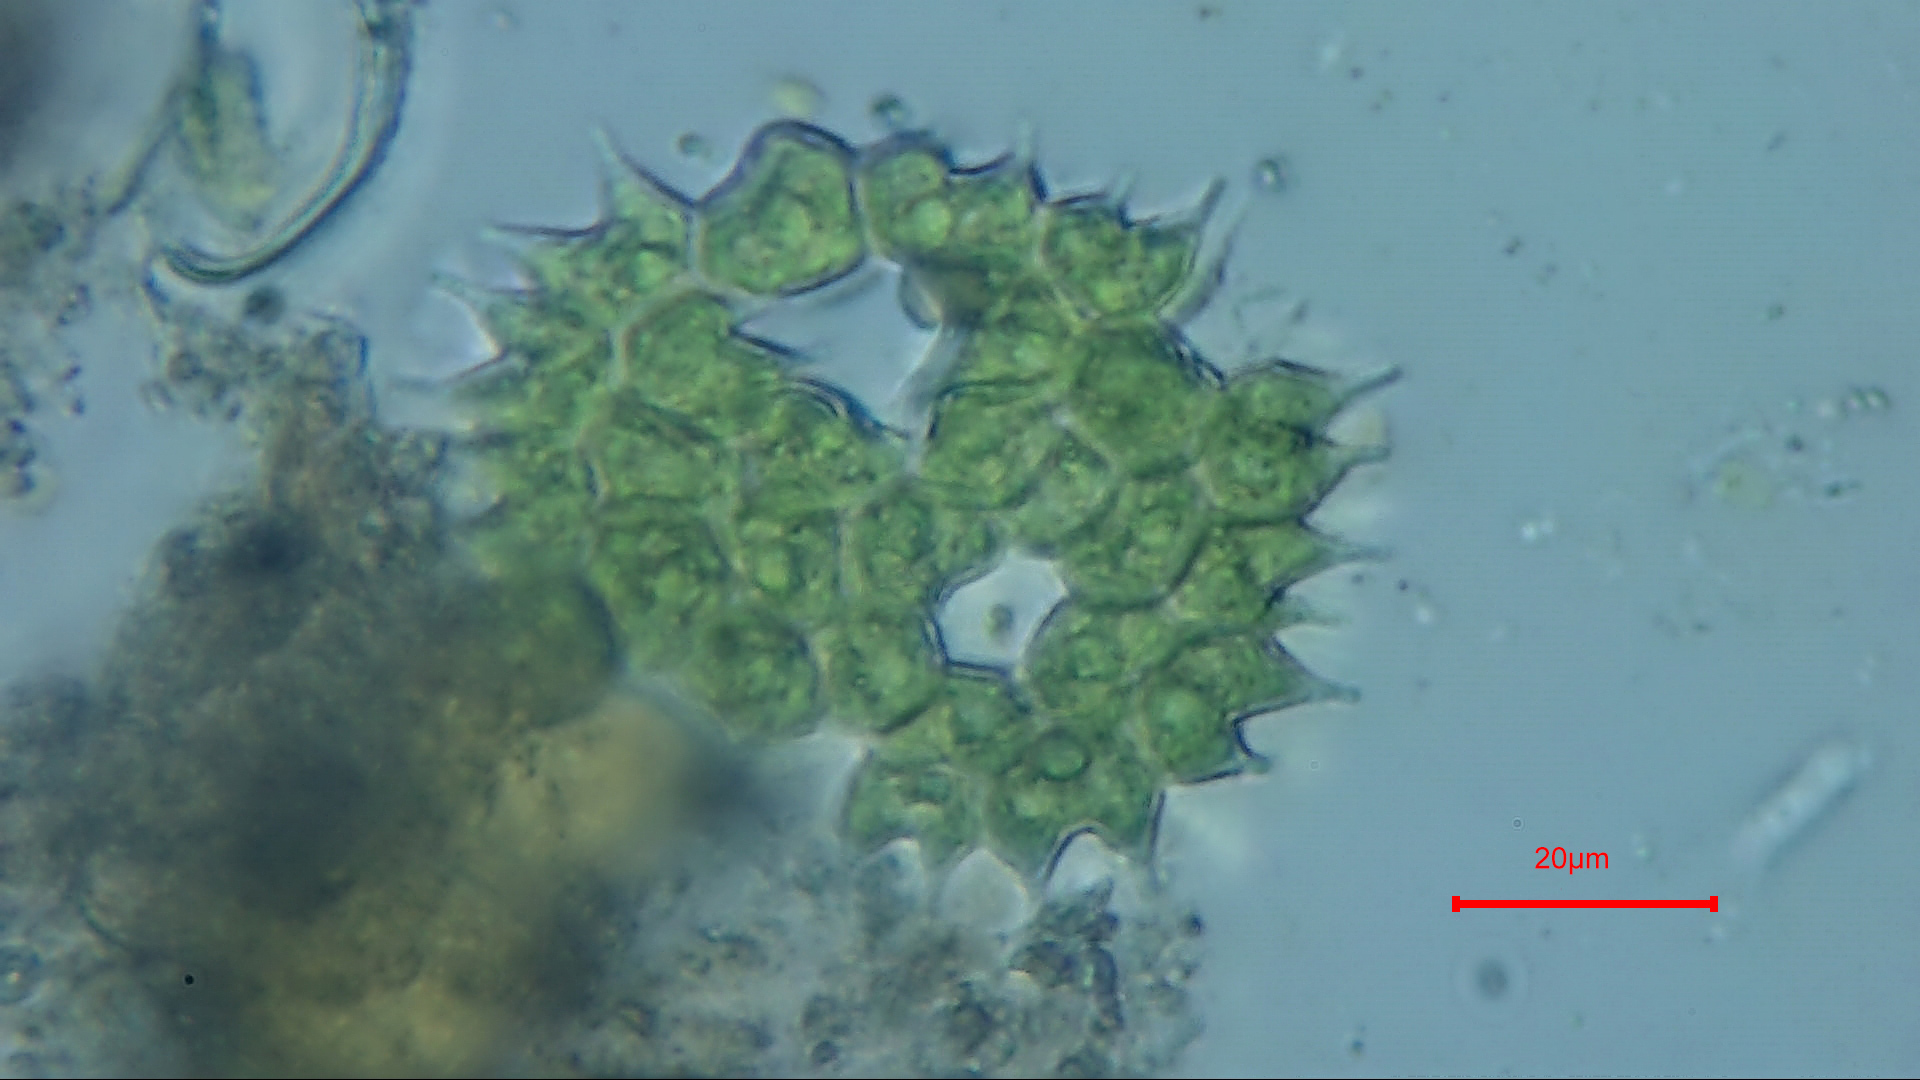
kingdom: Plantae
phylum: Chlorophyta
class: Chlorophyceae
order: Sphaeropleales
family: Hydrodictyaceae
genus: Pseudopediastrum
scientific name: Pseudopediastrum boryanum
